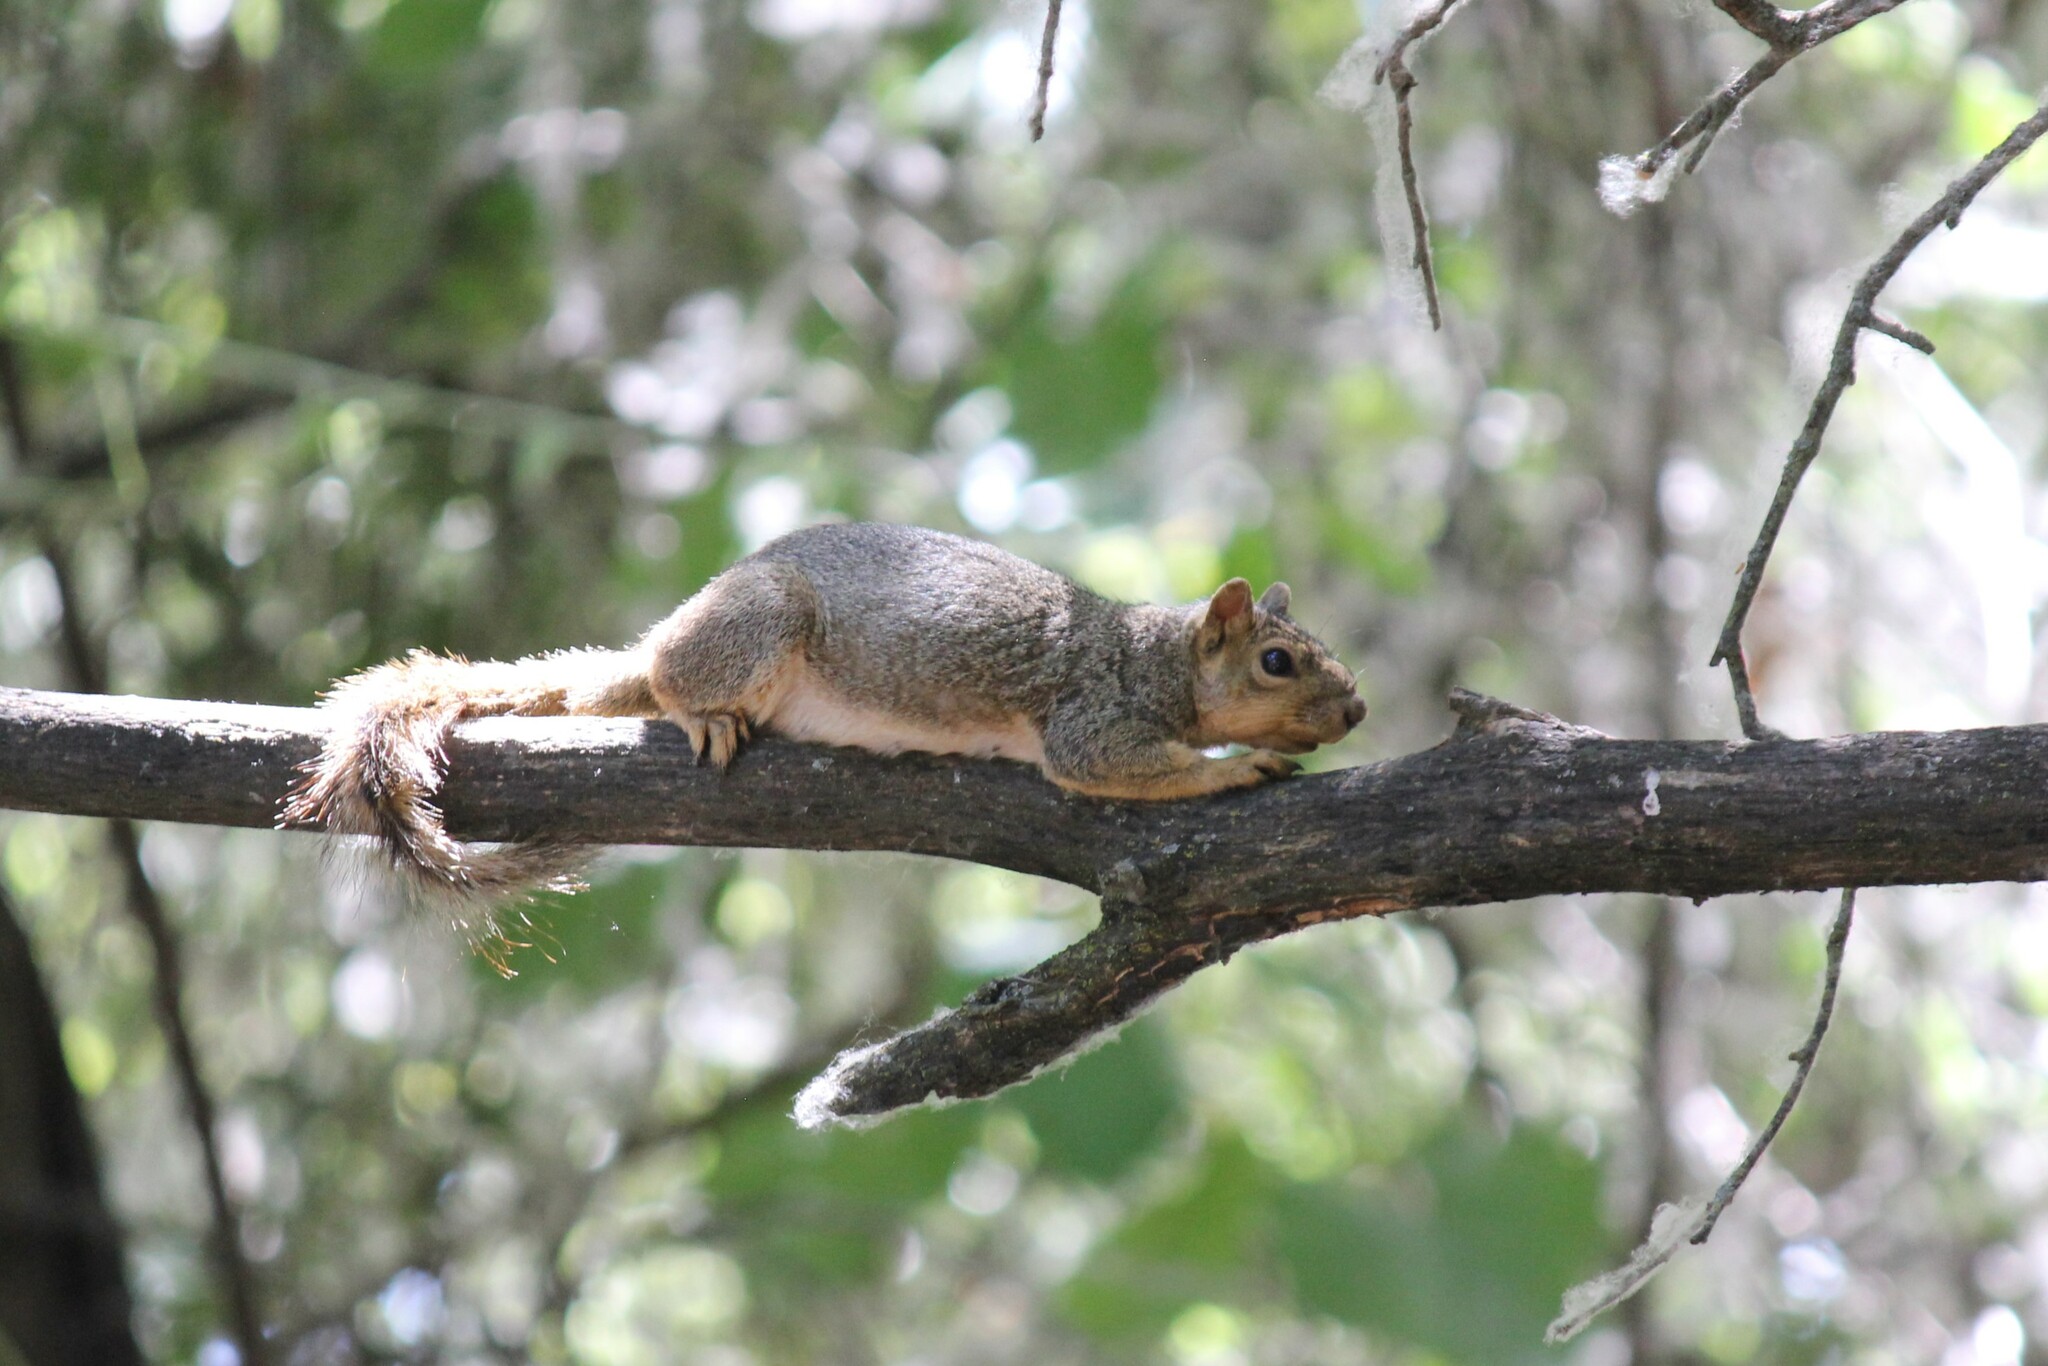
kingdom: Animalia
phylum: Chordata
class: Mammalia
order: Rodentia
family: Sciuridae
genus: Sciurus
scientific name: Sciurus niger
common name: Fox squirrel
